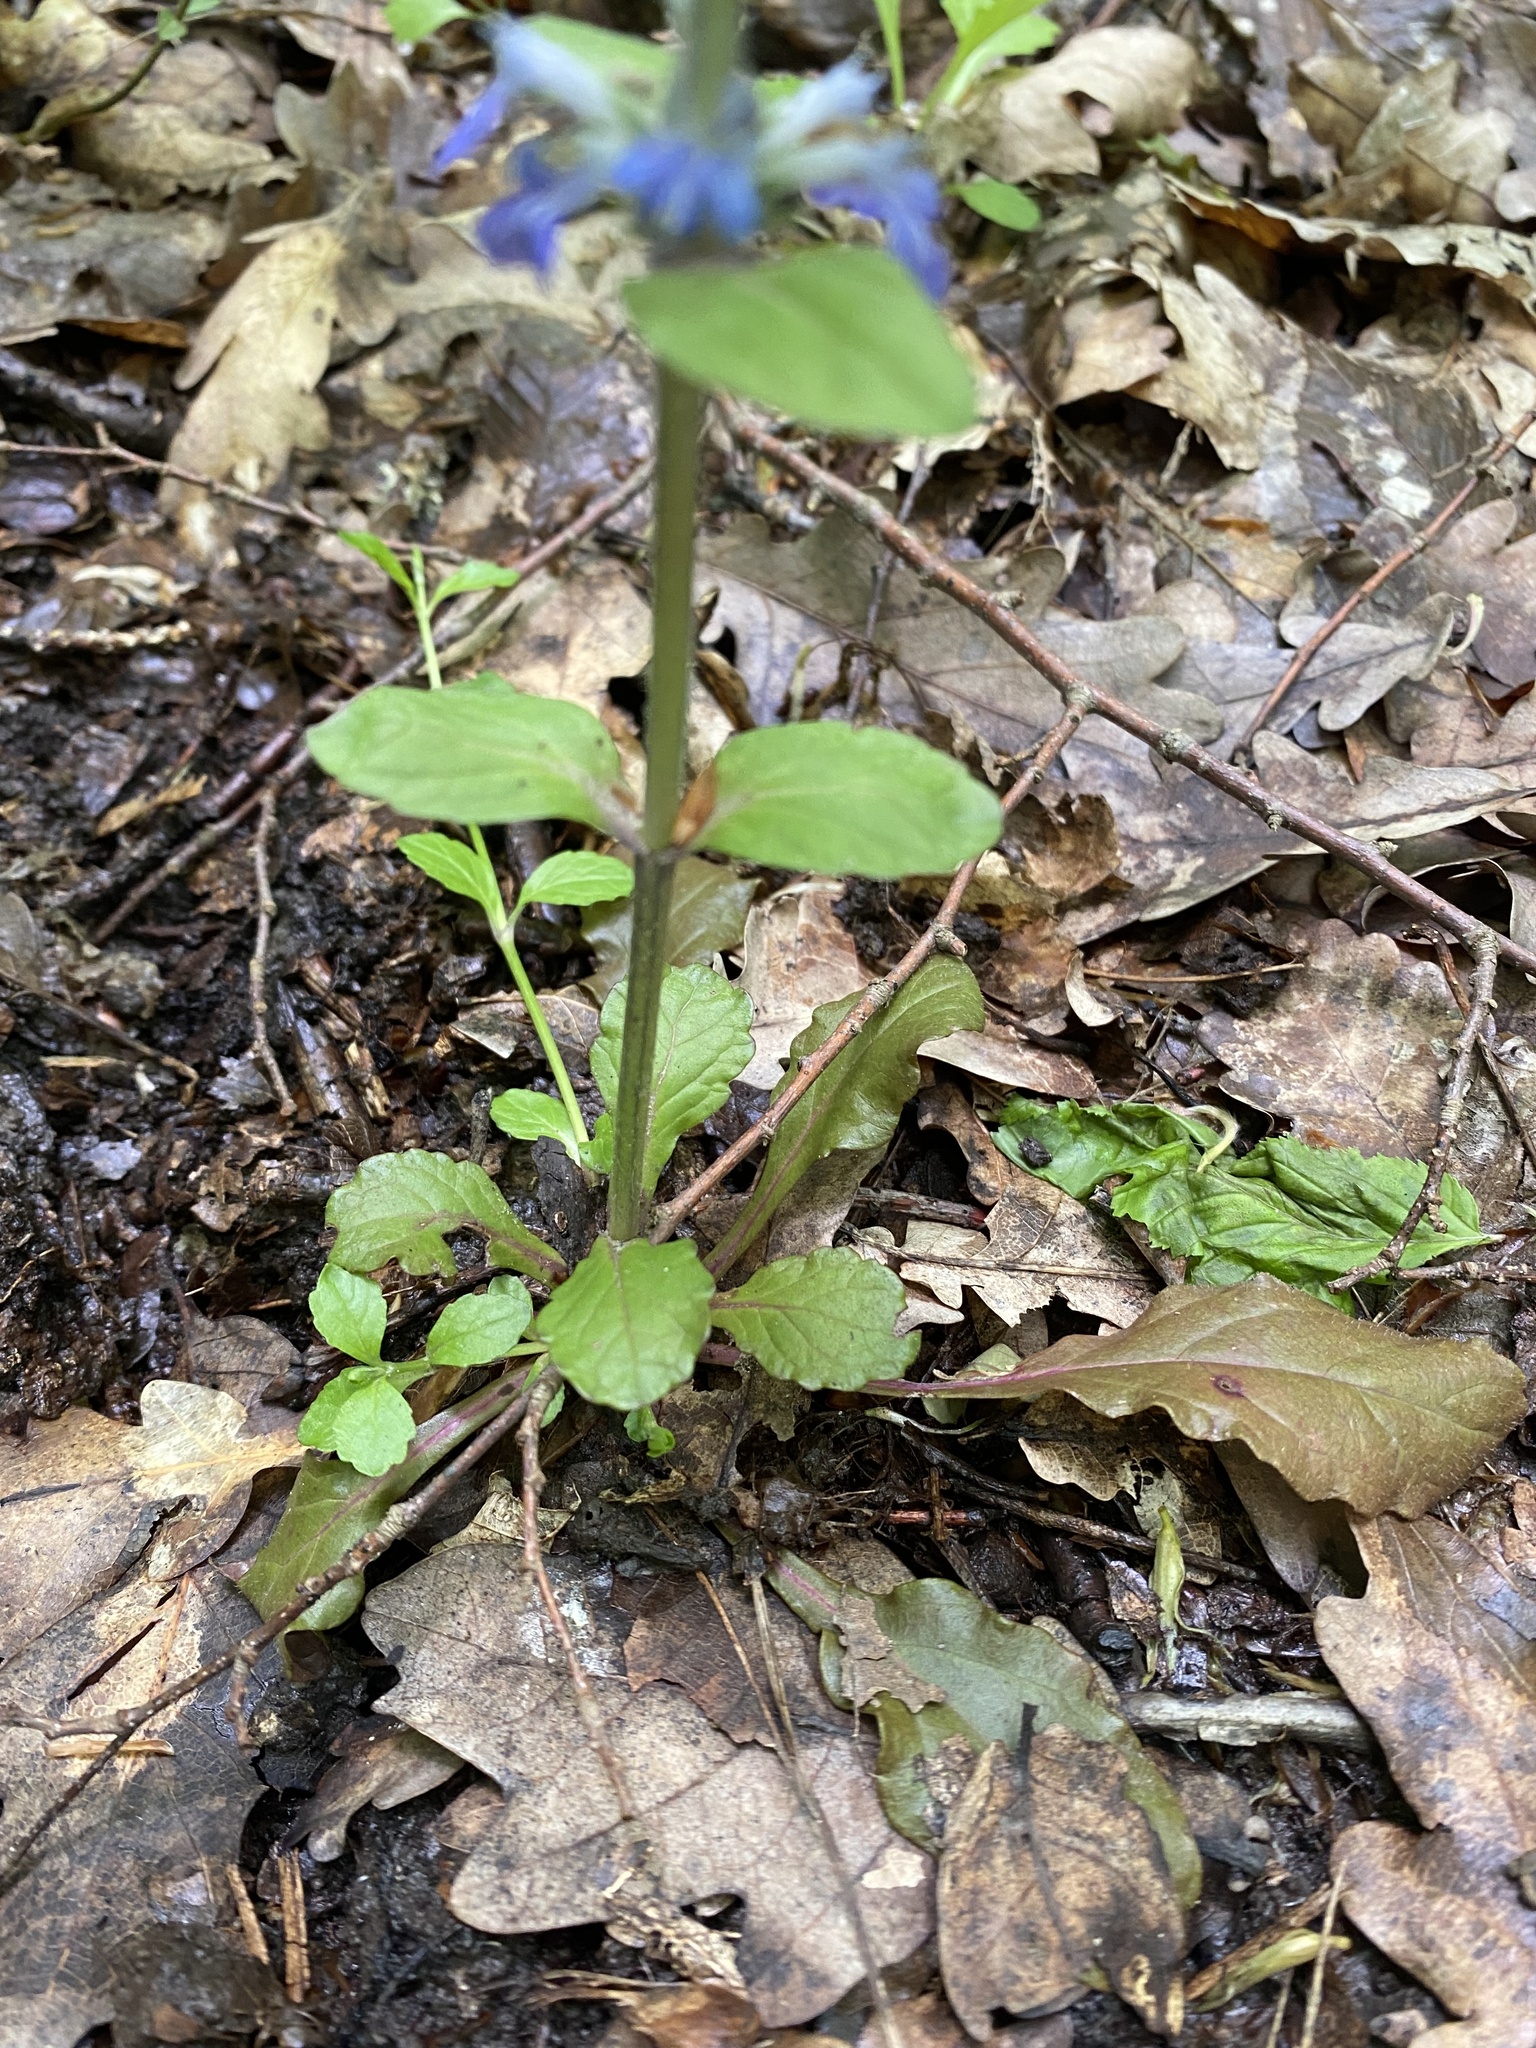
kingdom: Plantae
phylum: Tracheophyta
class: Magnoliopsida
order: Lamiales
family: Lamiaceae
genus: Ajuga
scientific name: Ajuga reptans
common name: Bugle
